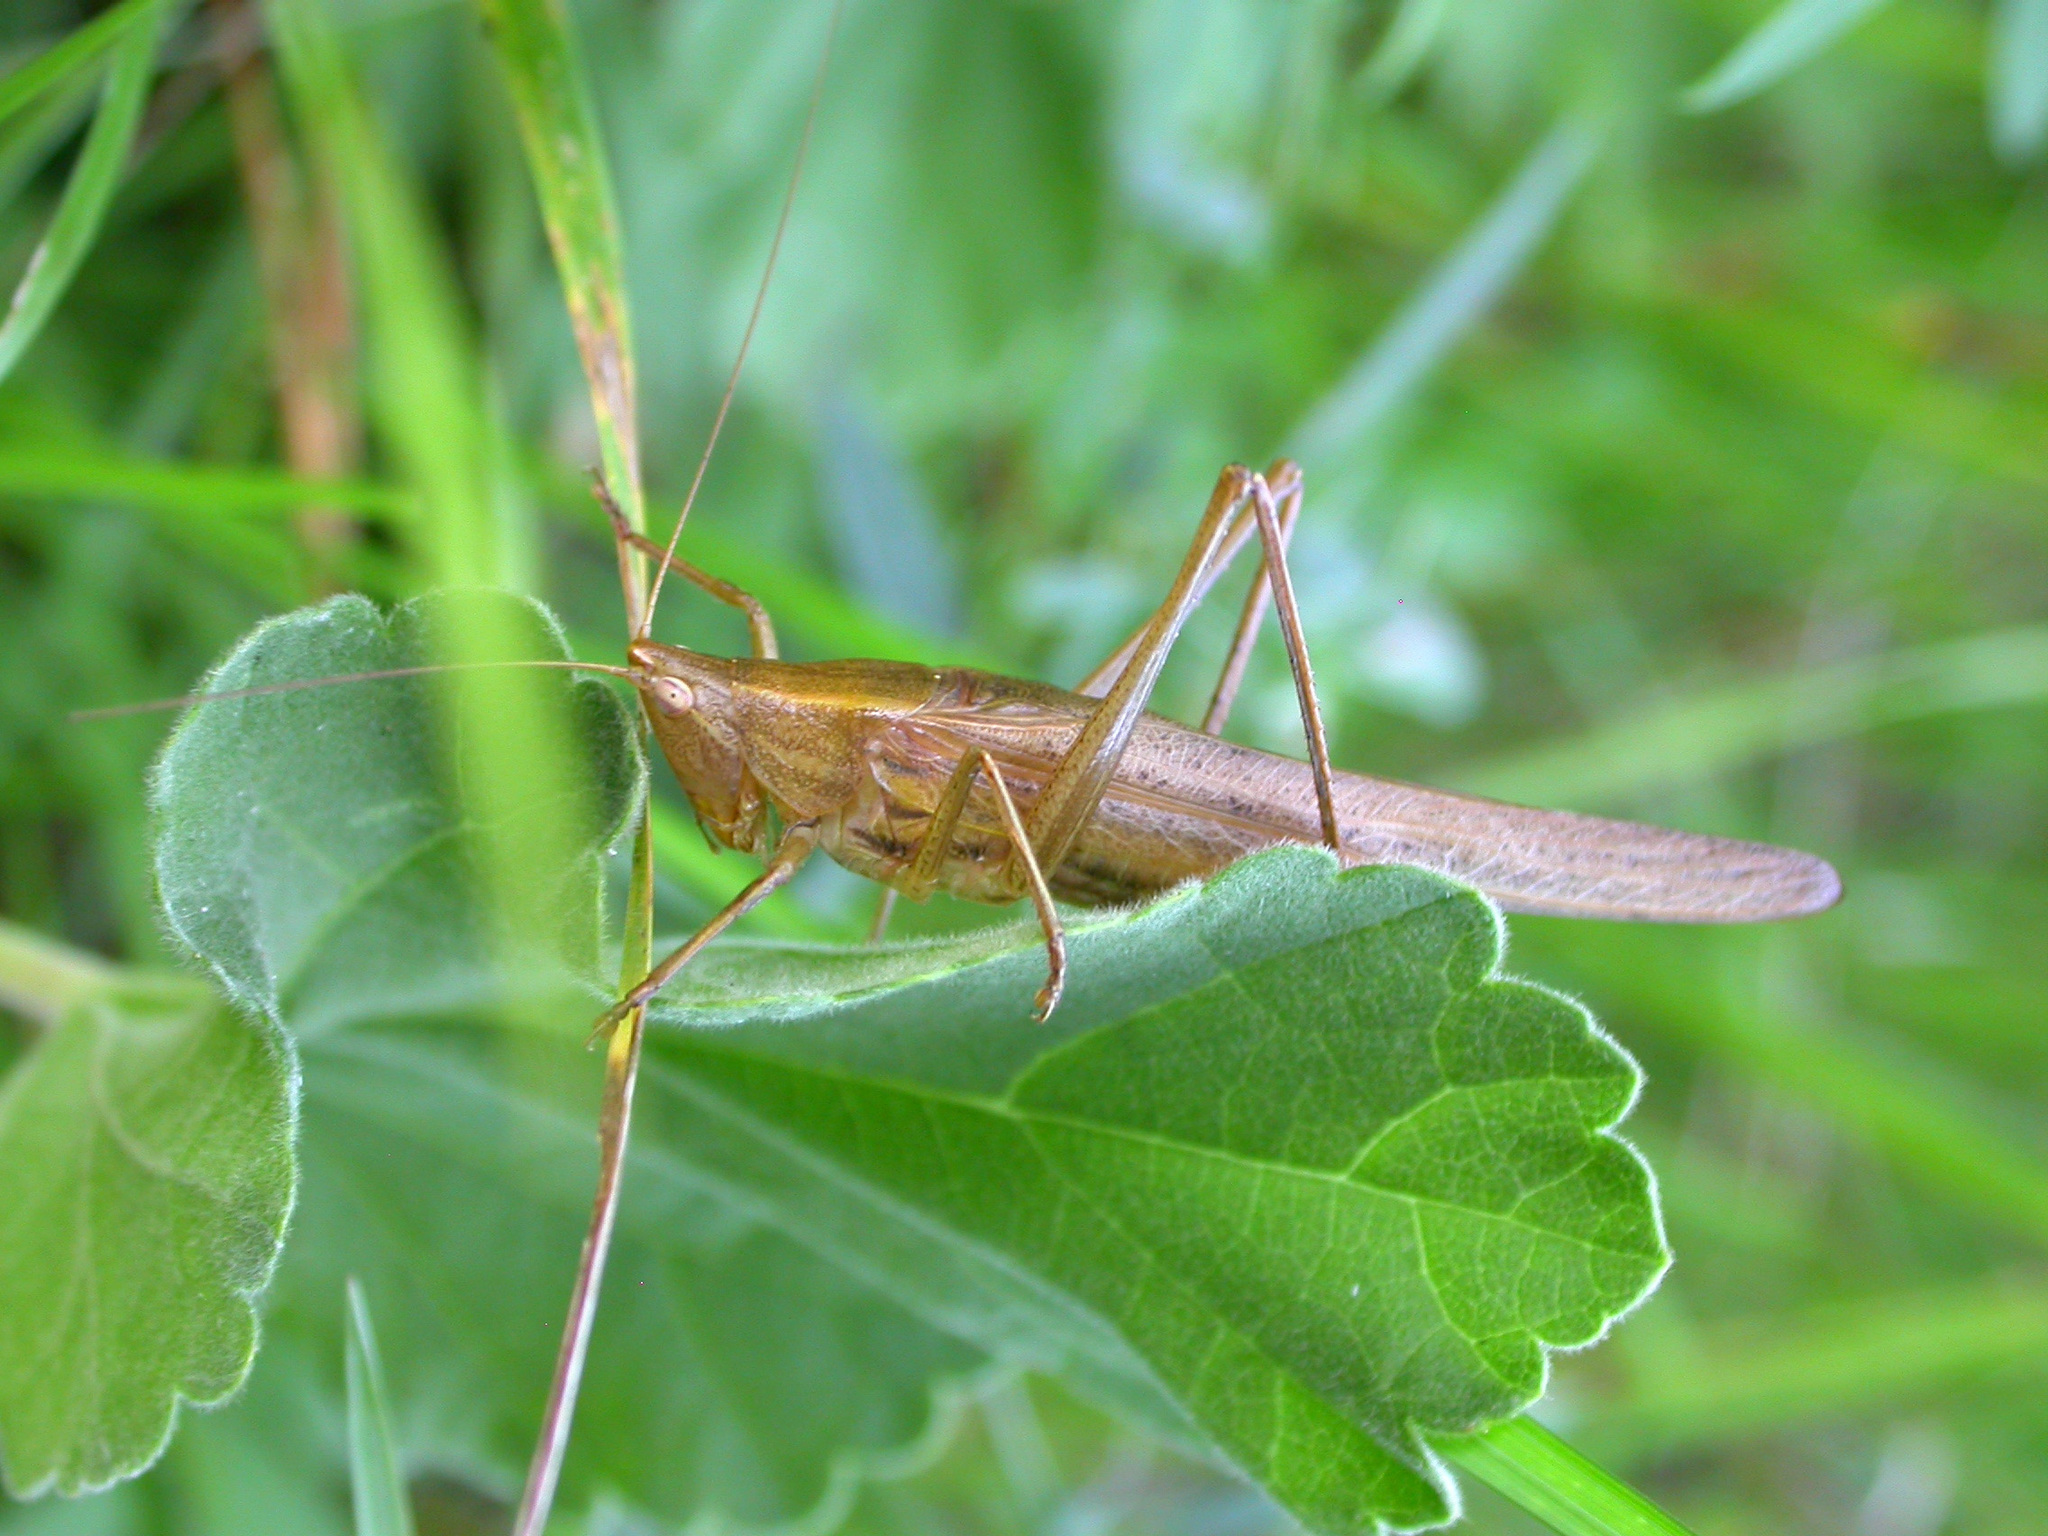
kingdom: Animalia
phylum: Arthropoda
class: Insecta
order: Orthoptera
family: Tettigoniidae
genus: Ruspolia
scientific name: Ruspolia nitidula
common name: Large conehead
